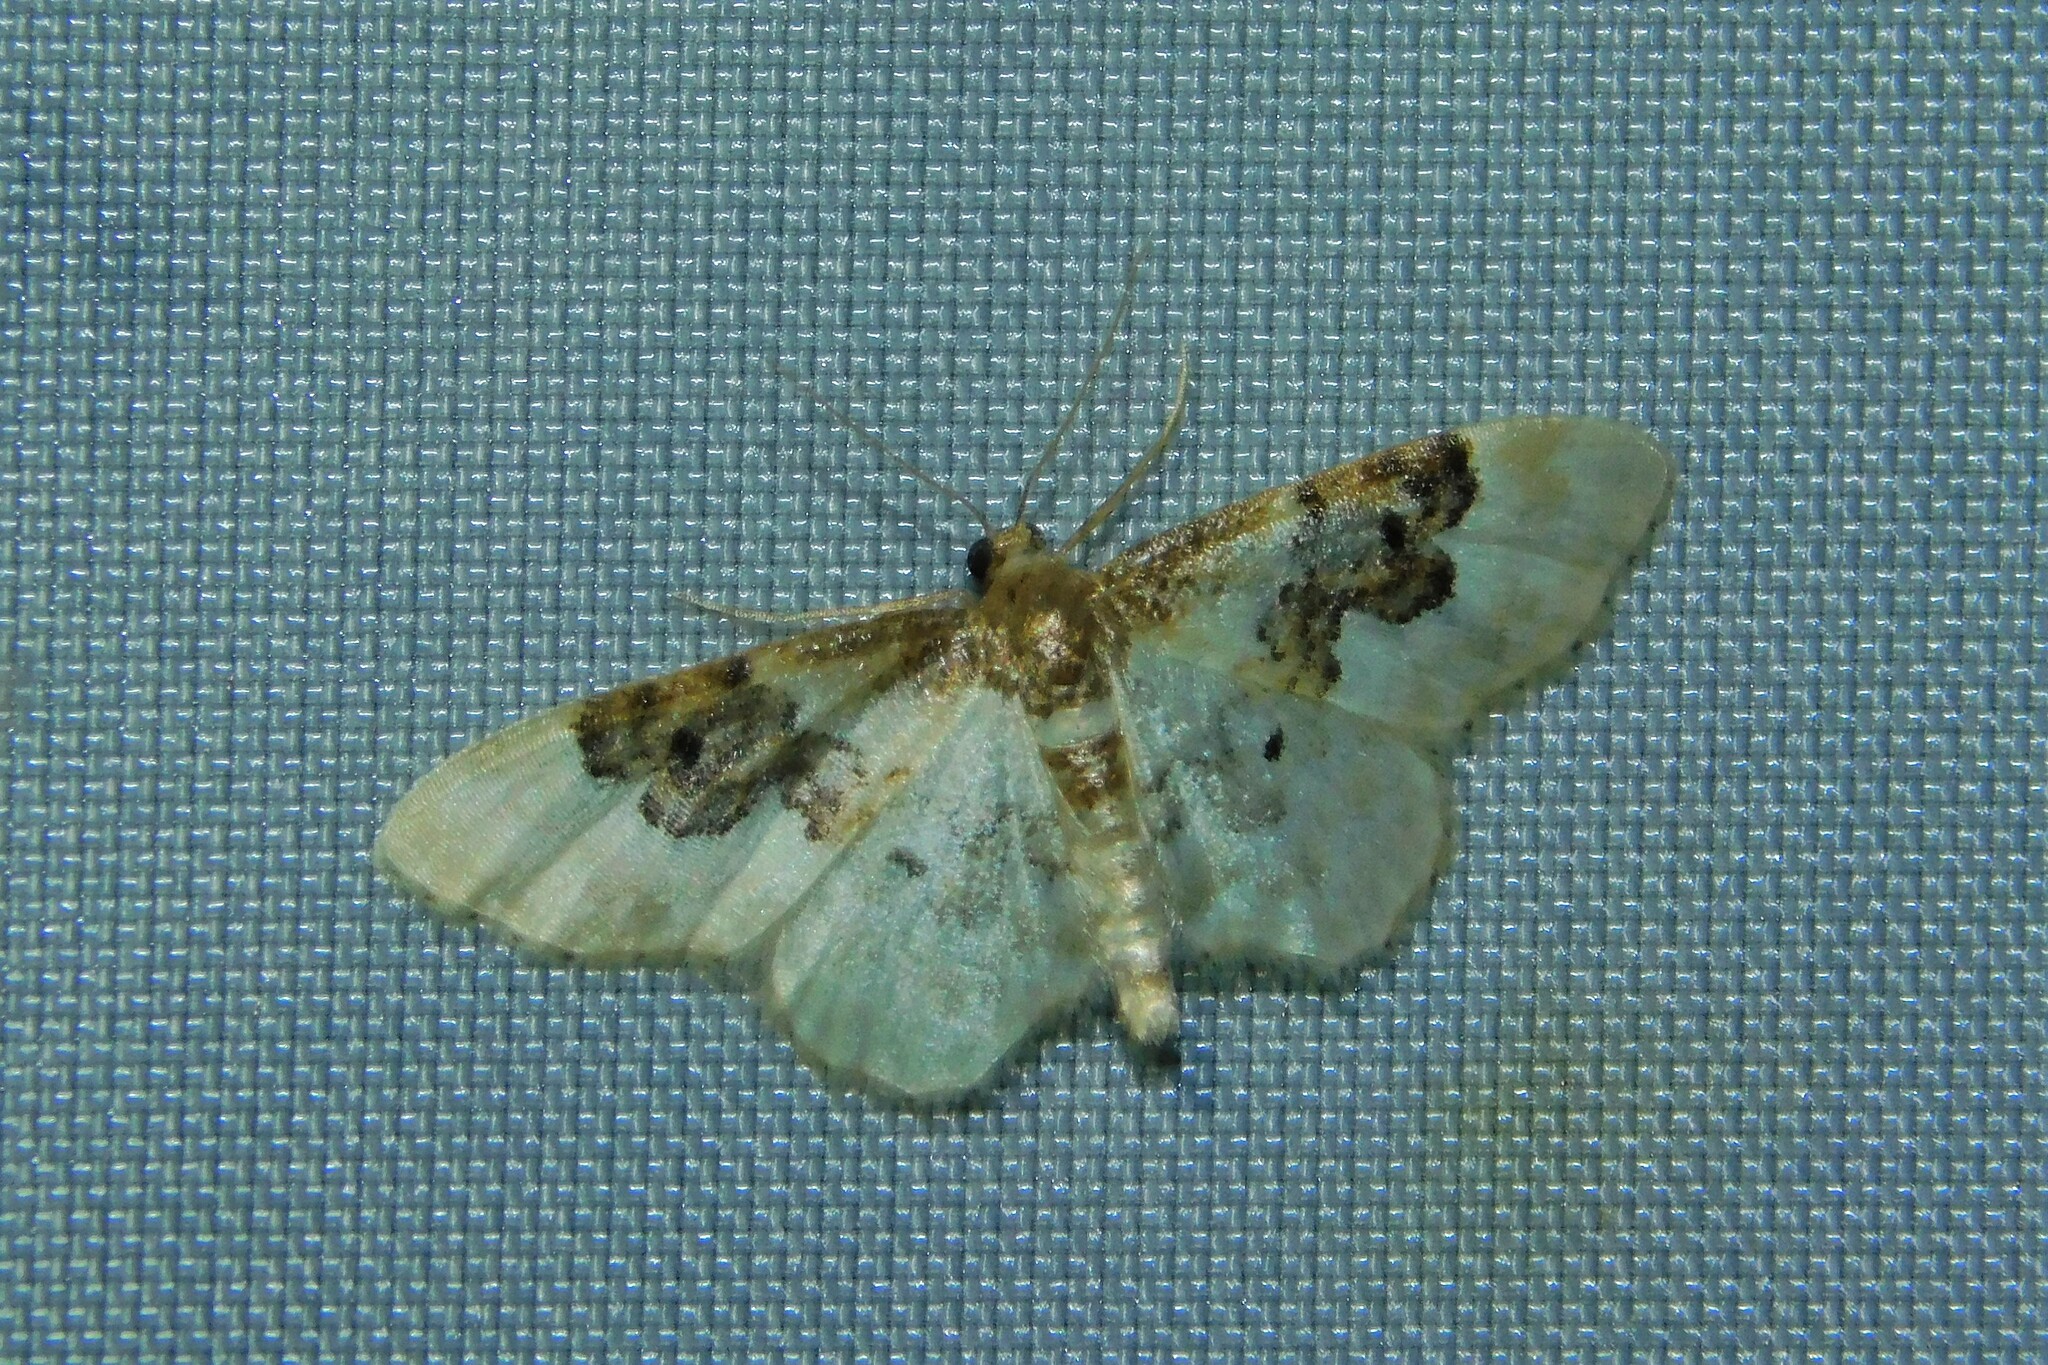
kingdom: Animalia
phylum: Arthropoda
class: Insecta
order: Lepidoptera
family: Geometridae
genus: Idaea
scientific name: Idaea rusticata
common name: Least carpet
